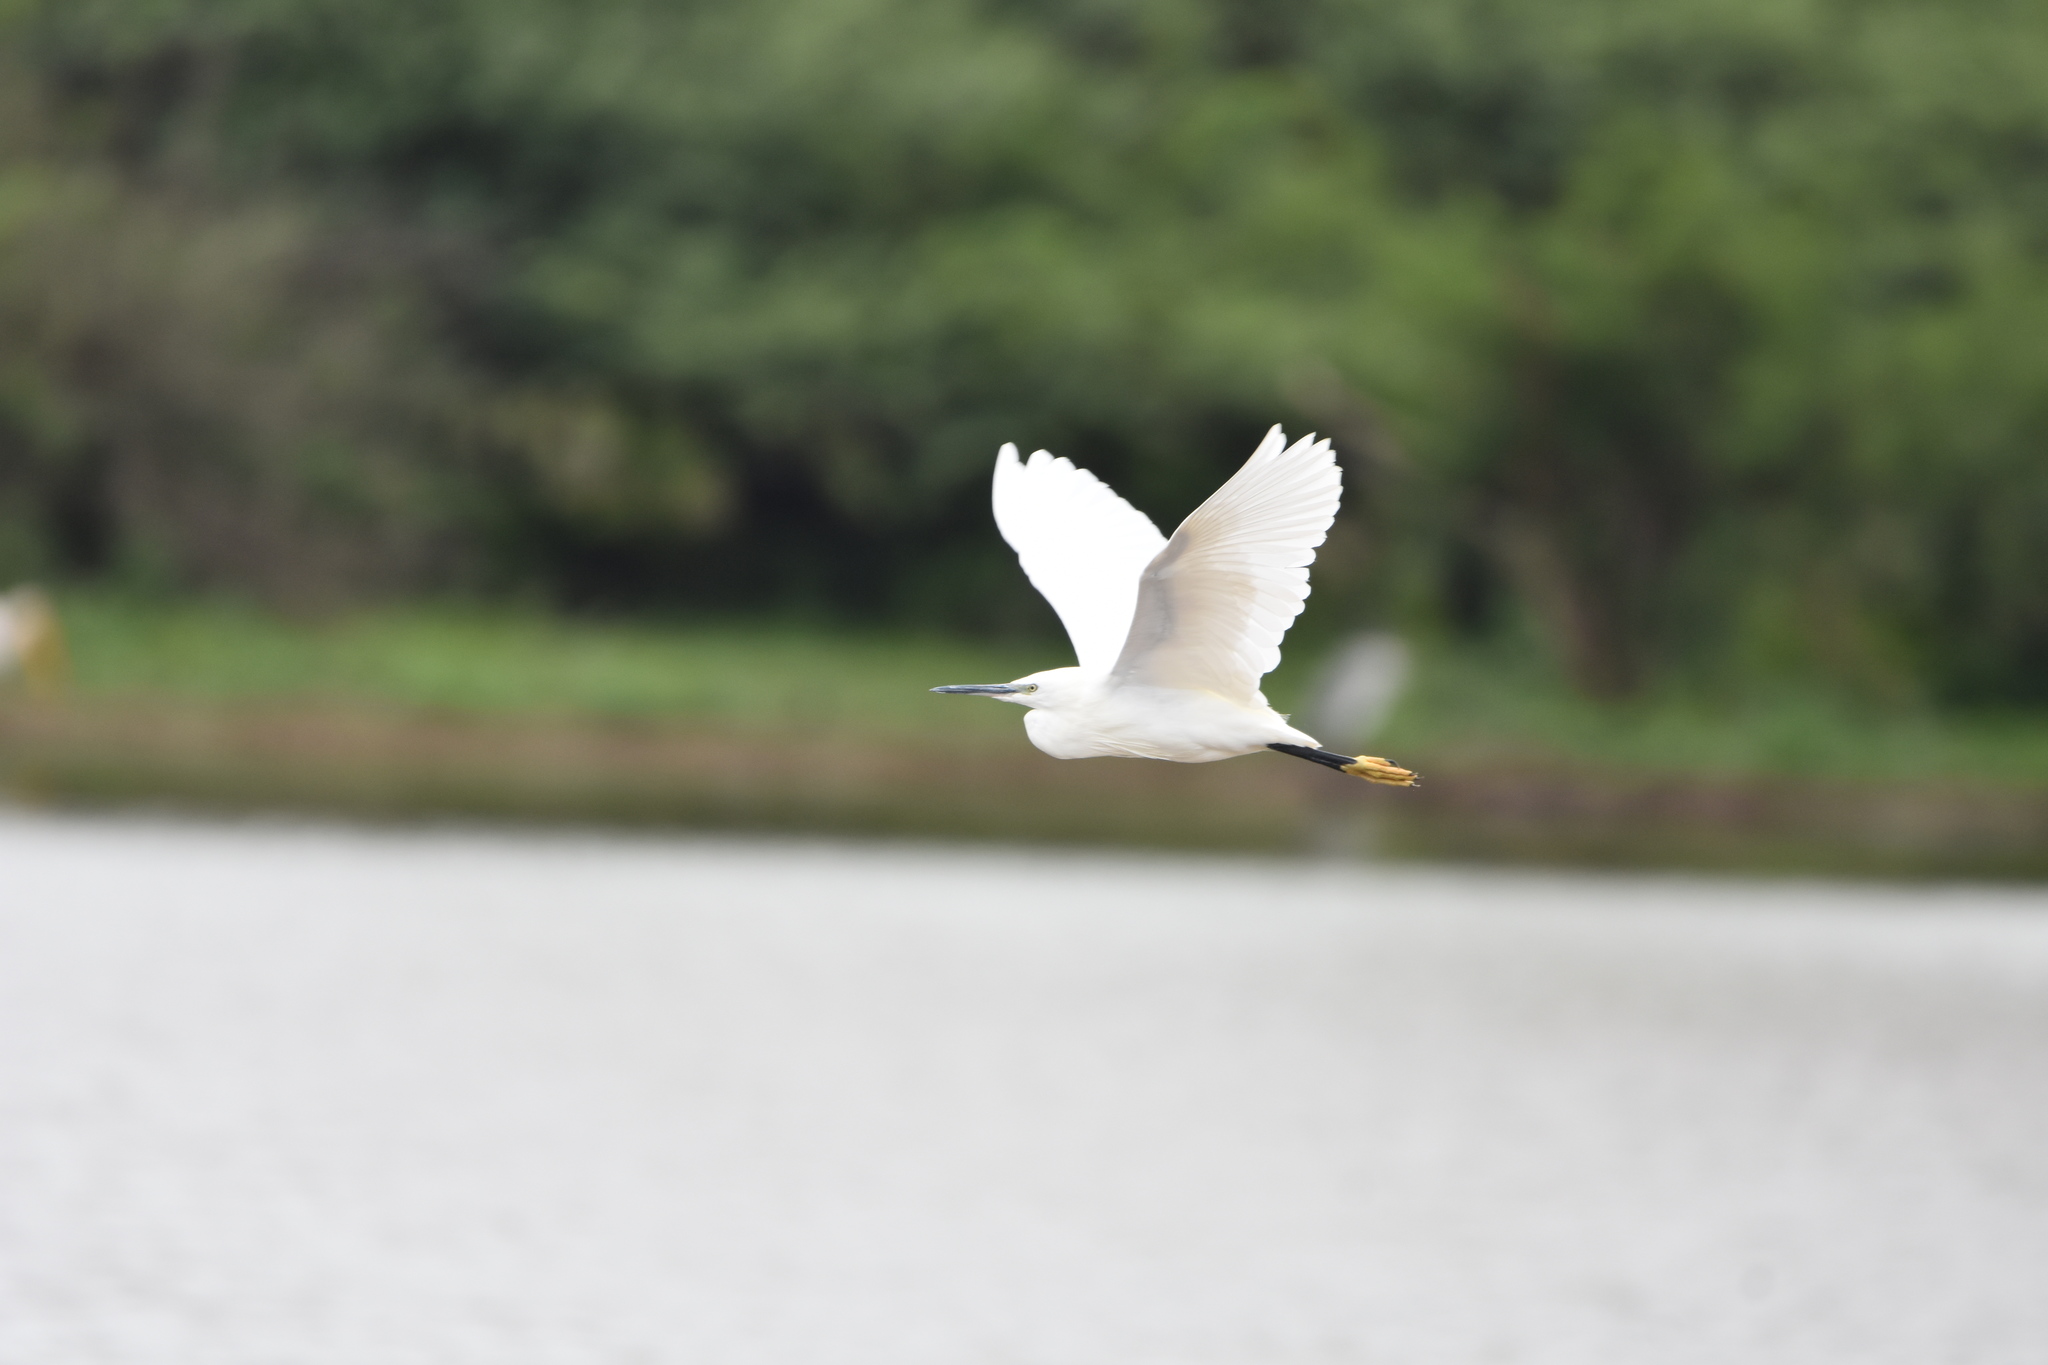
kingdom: Animalia
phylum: Chordata
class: Aves
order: Pelecaniformes
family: Ardeidae
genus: Egretta
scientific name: Egretta garzetta
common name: Little egret
